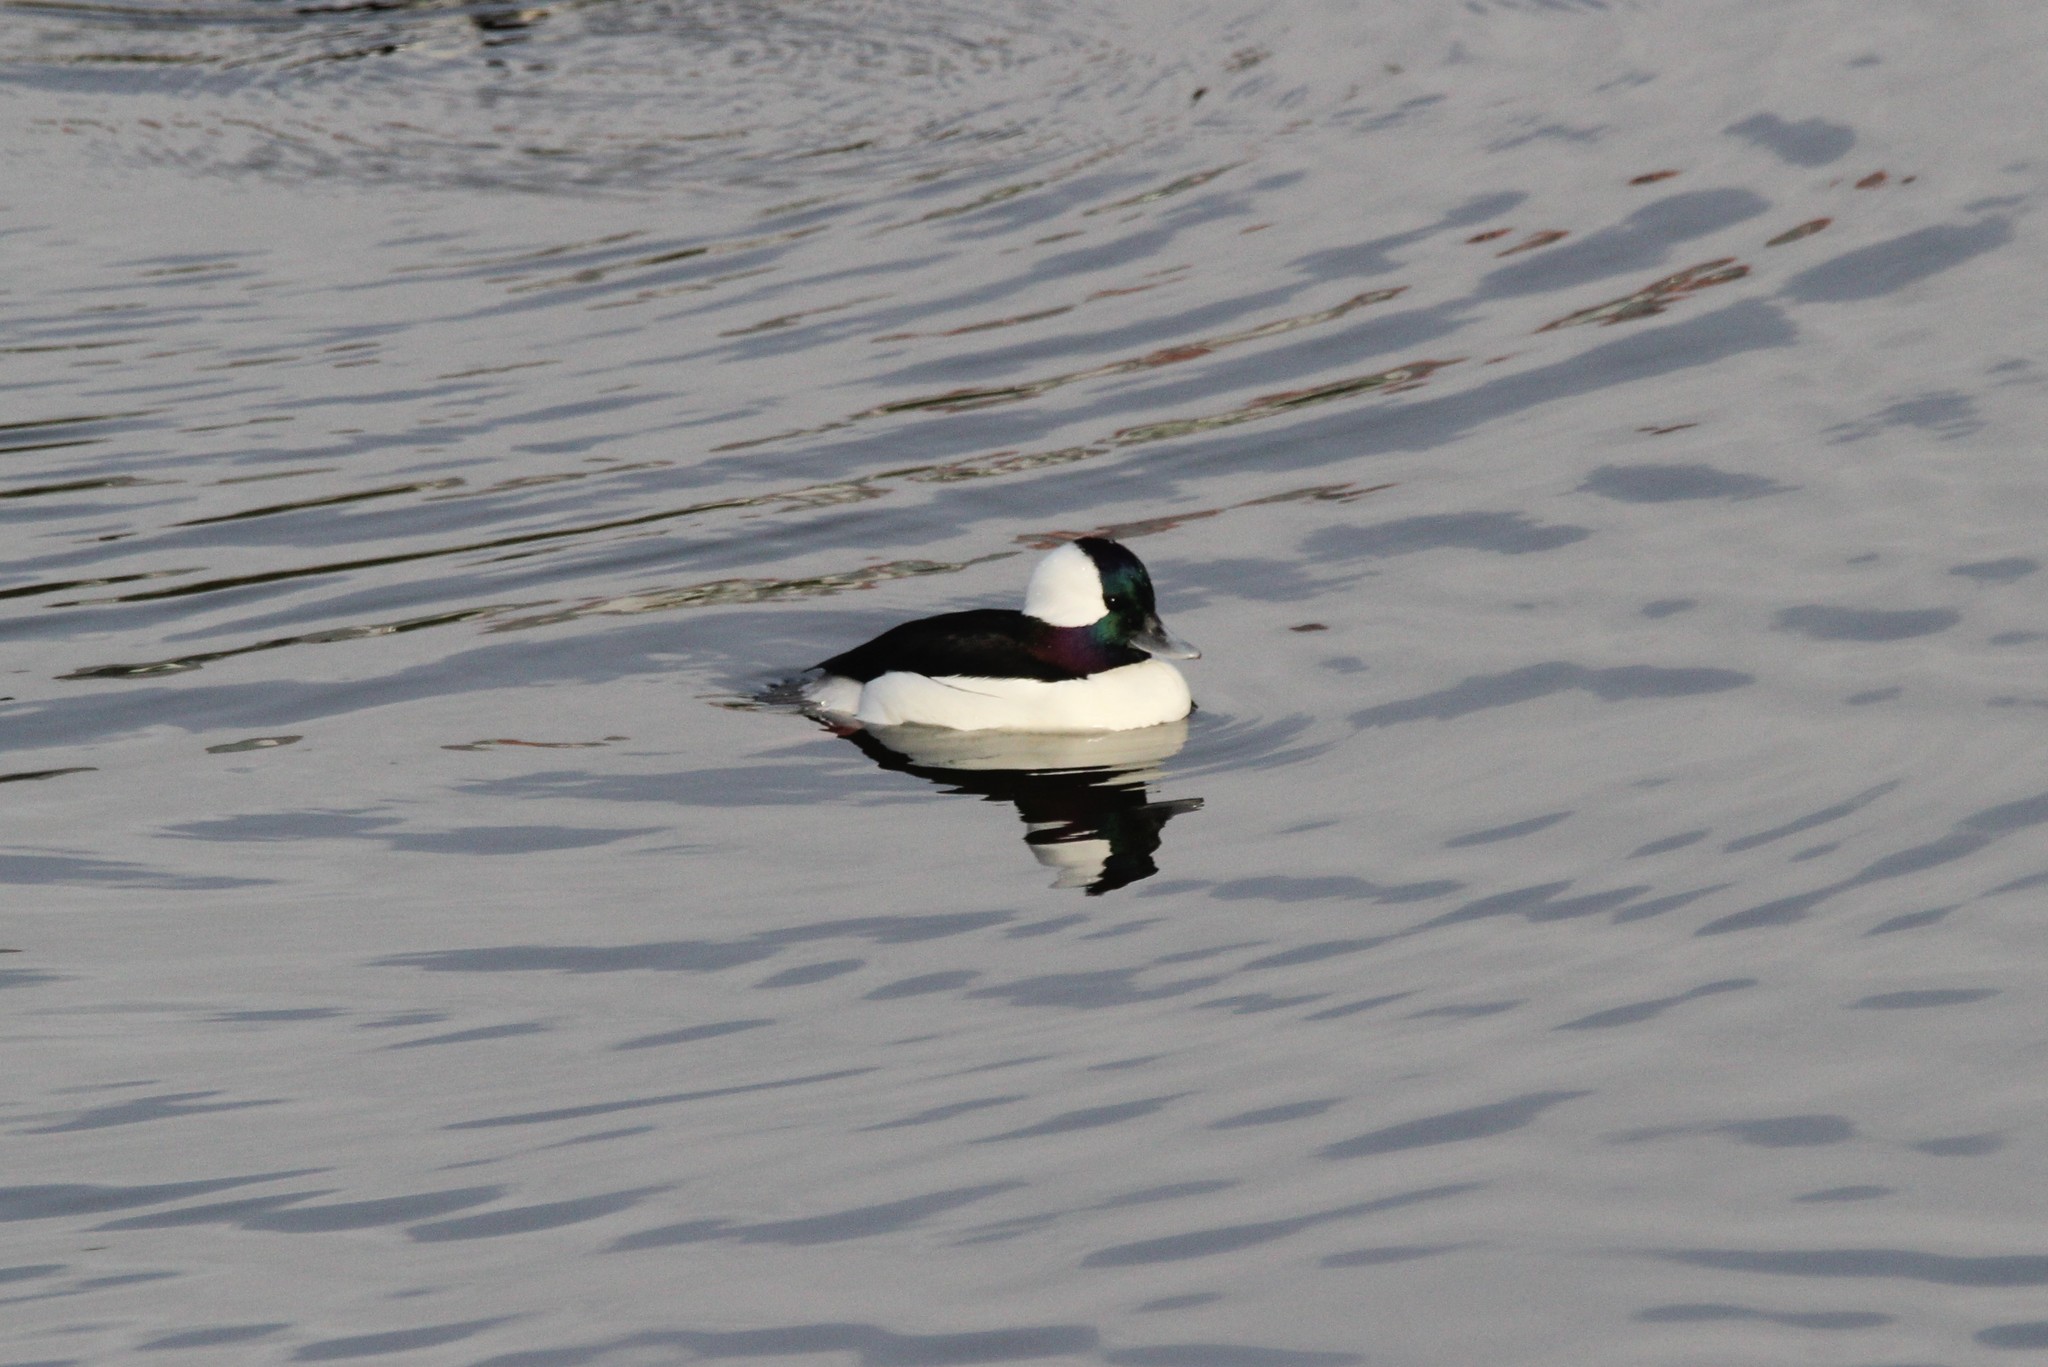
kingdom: Animalia
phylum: Chordata
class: Aves
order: Anseriformes
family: Anatidae
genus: Bucephala
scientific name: Bucephala albeola
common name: Bufflehead
